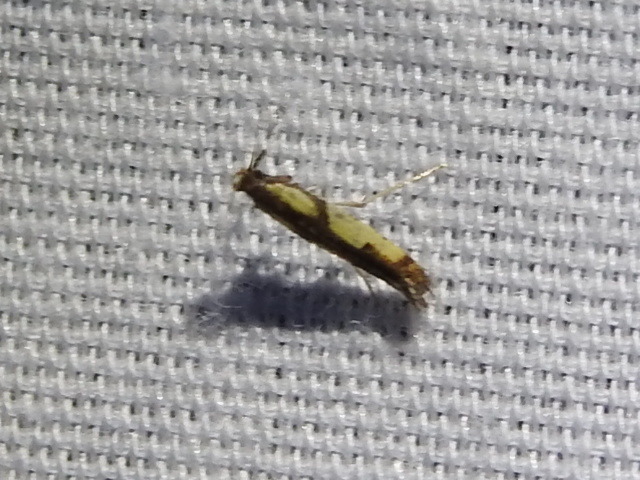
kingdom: Animalia
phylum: Arthropoda
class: Insecta
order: Lepidoptera
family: Gracillariidae
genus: Caloptilia
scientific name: Caloptilia blandella
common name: Walnut caloptilia moth
